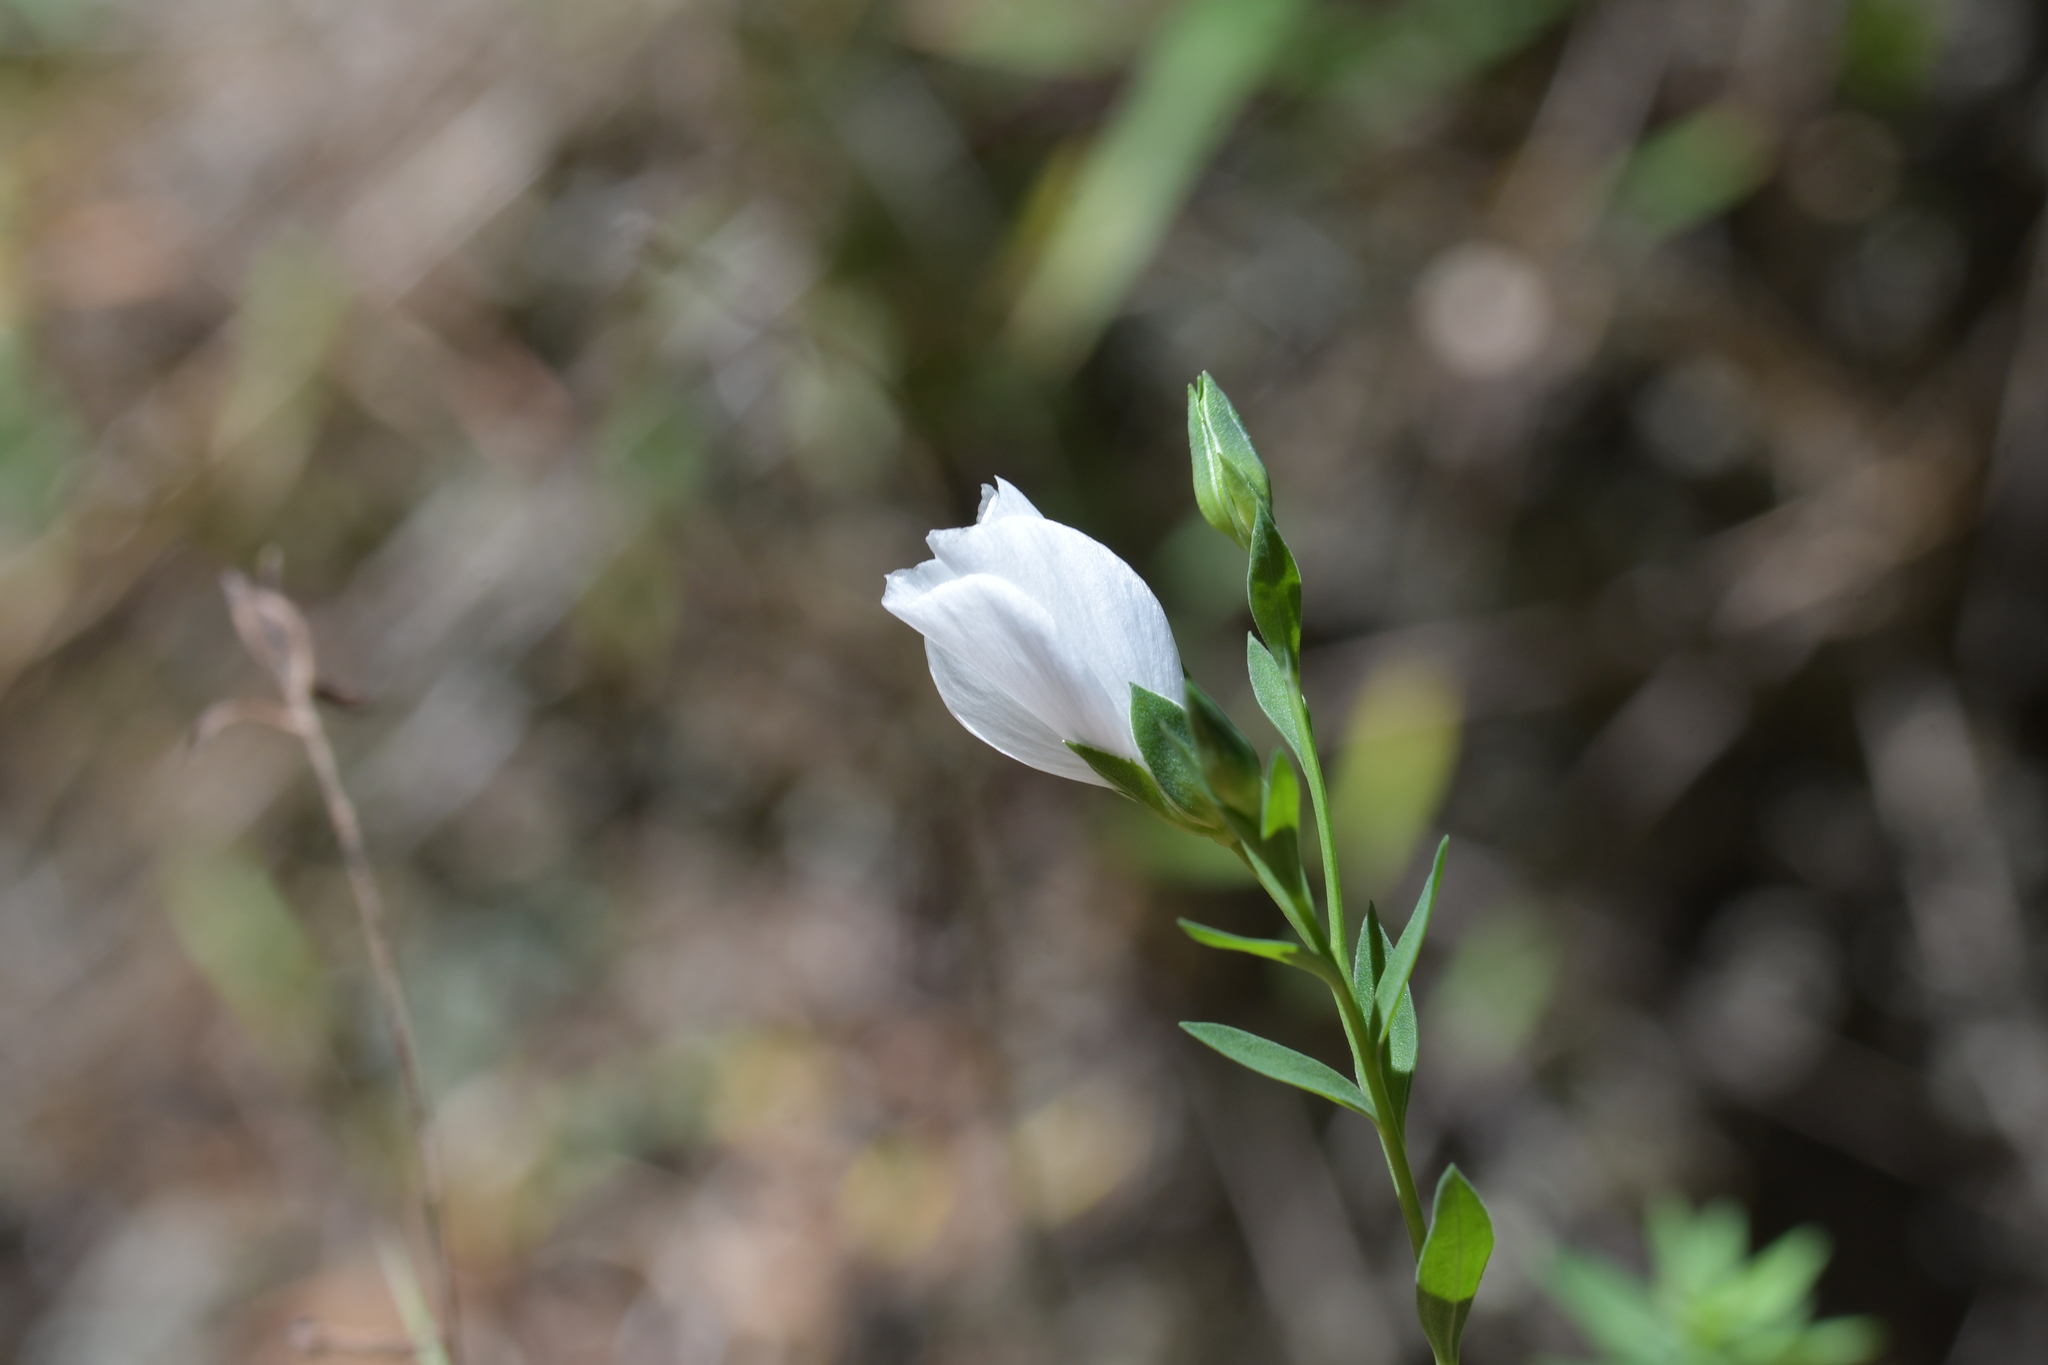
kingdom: Plantae
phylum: Tracheophyta
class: Magnoliopsida
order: Malpighiales
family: Linaceae
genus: Linum
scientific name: Linum monogynum
